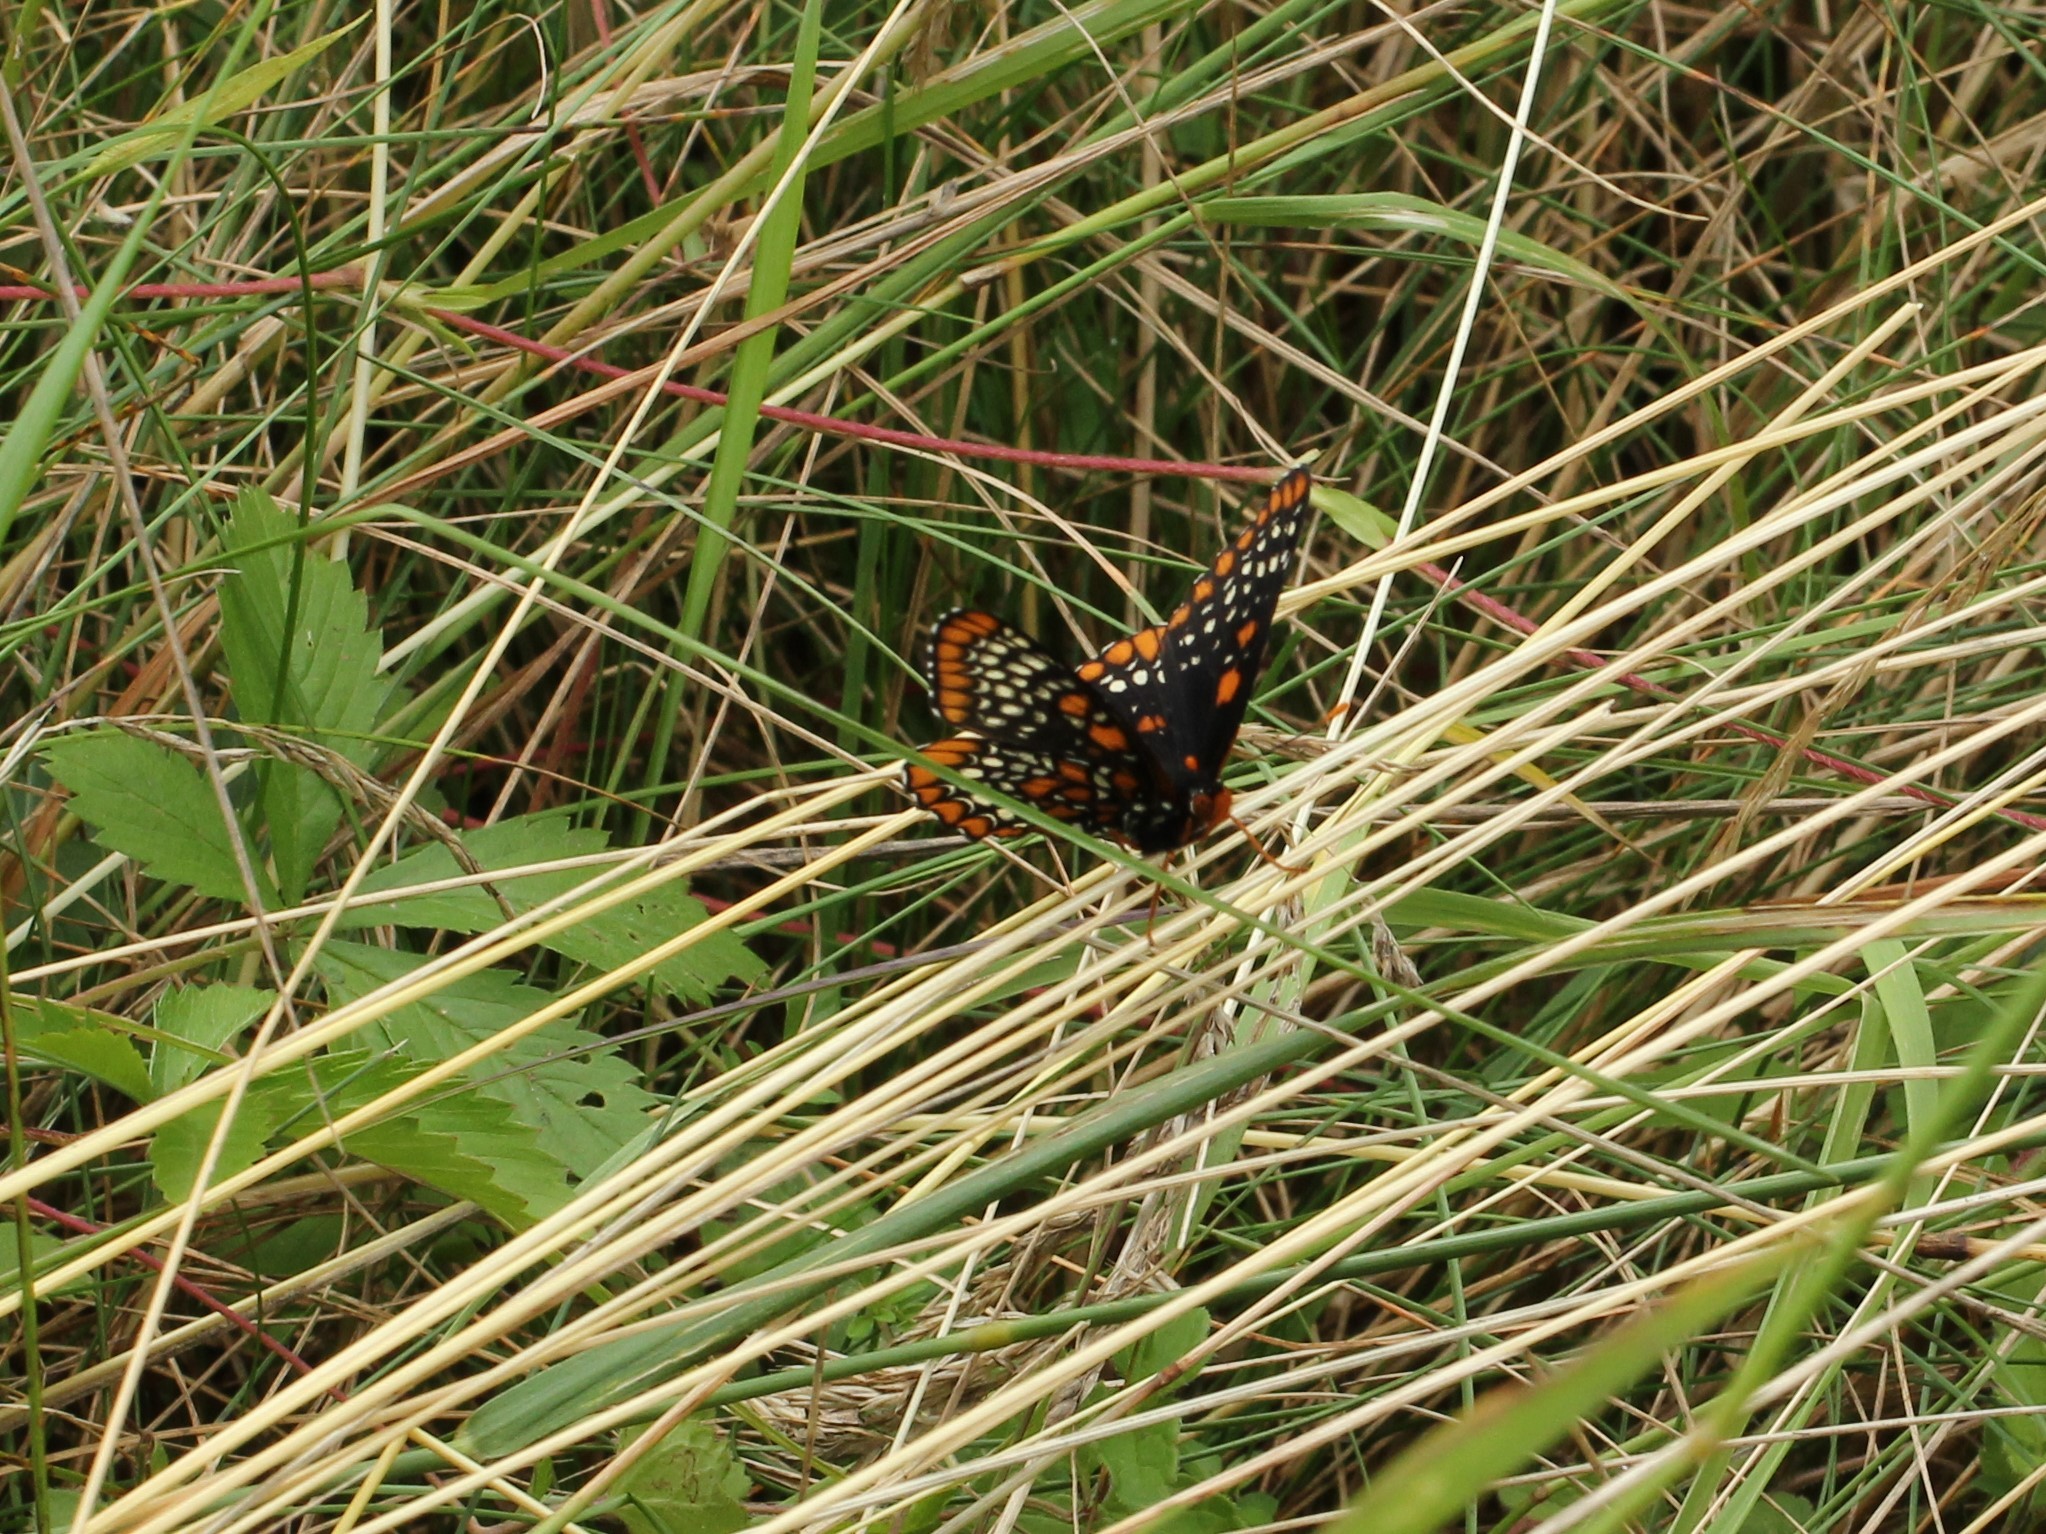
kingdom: Animalia
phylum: Arthropoda
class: Insecta
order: Lepidoptera
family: Nymphalidae
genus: Euphydryas
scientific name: Euphydryas phaeton
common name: Baltimore checkerspot
